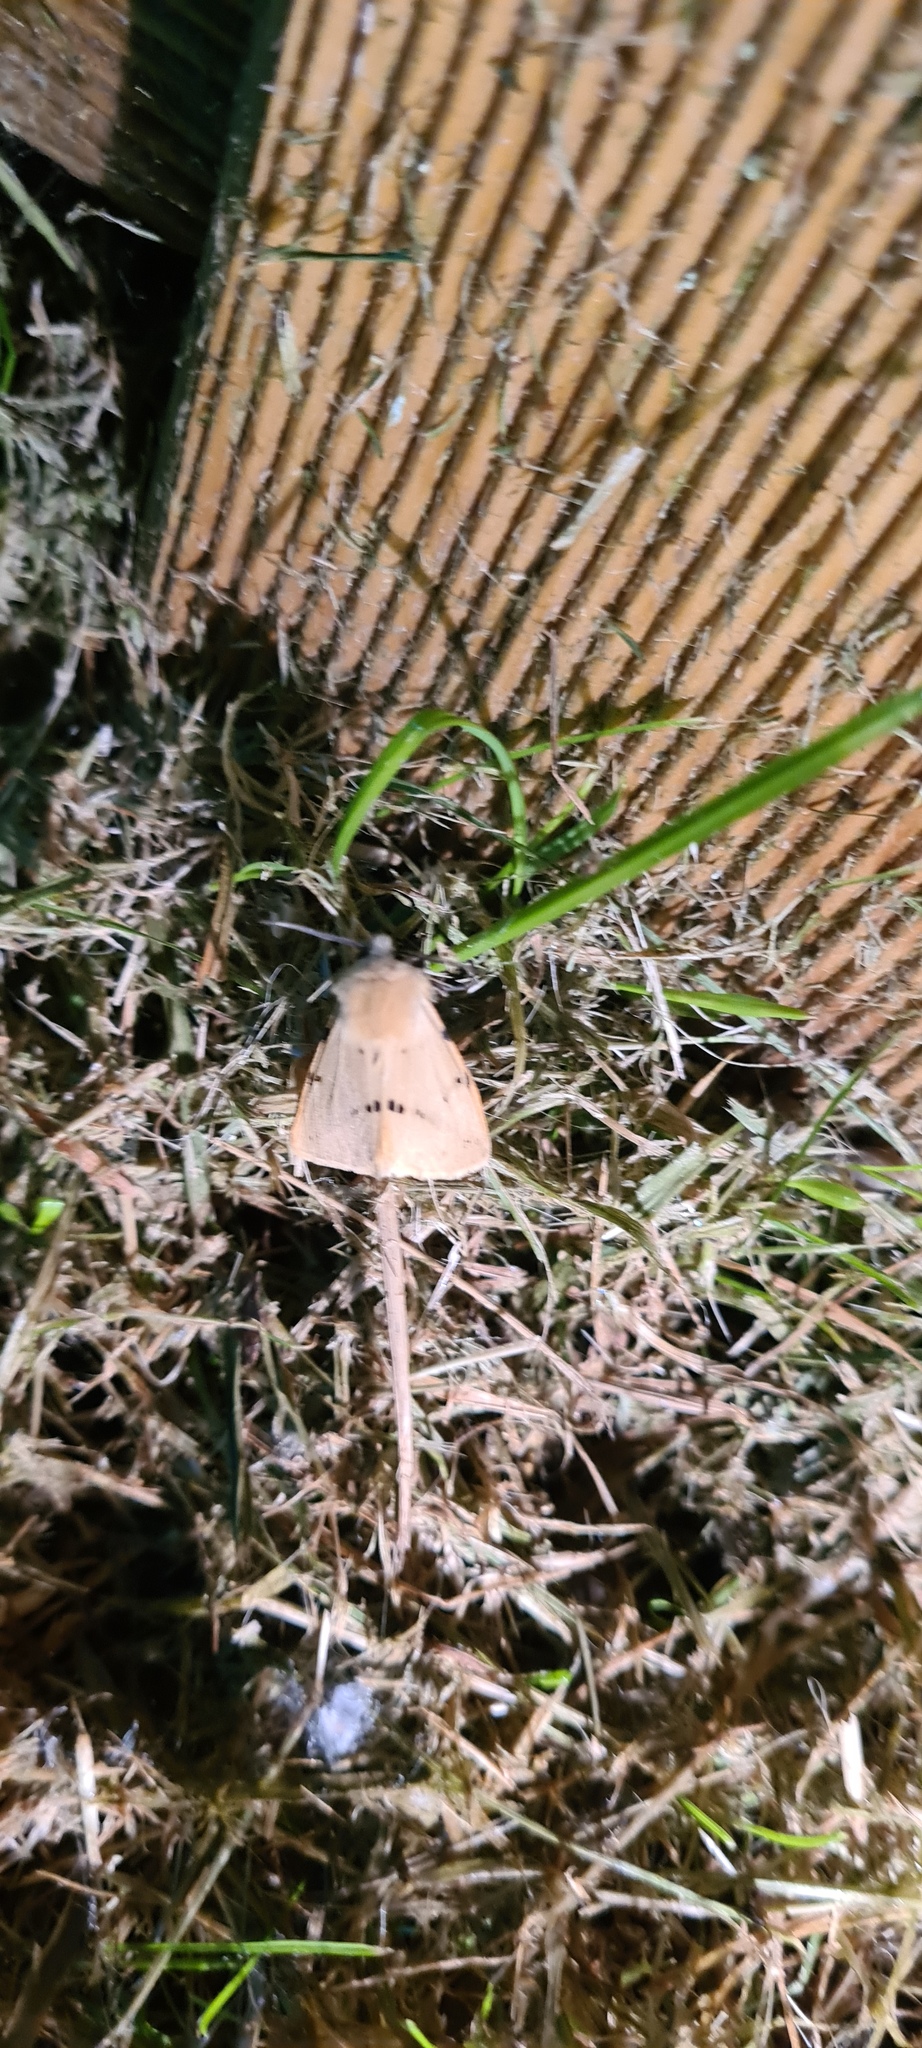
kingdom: Animalia
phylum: Arthropoda
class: Insecta
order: Lepidoptera
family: Erebidae
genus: Spilarctia
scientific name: Spilarctia lutea
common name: Buff ermine
